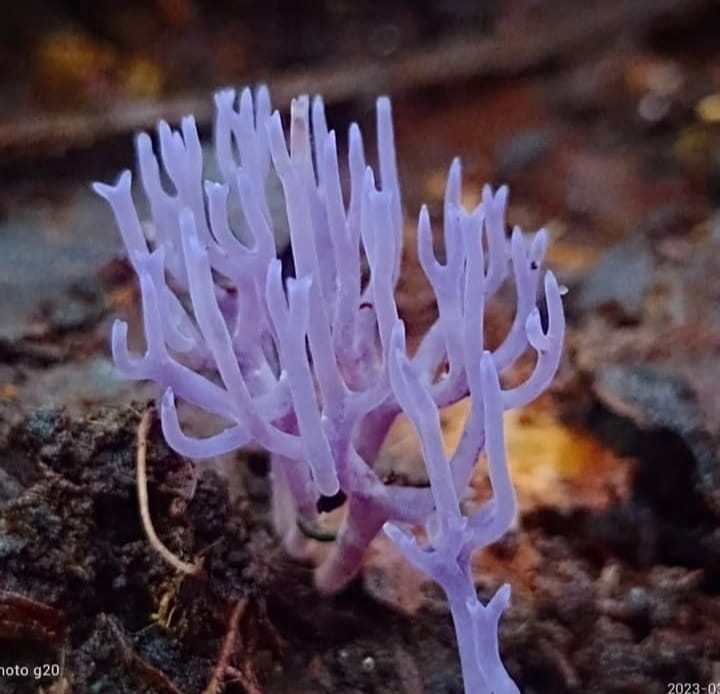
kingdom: Fungi
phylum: Basidiomycota
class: Agaricomycetes
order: Agaricales
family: Clavariaceae
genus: Clavaria
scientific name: Clavaria zollingeri
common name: Violet coral
